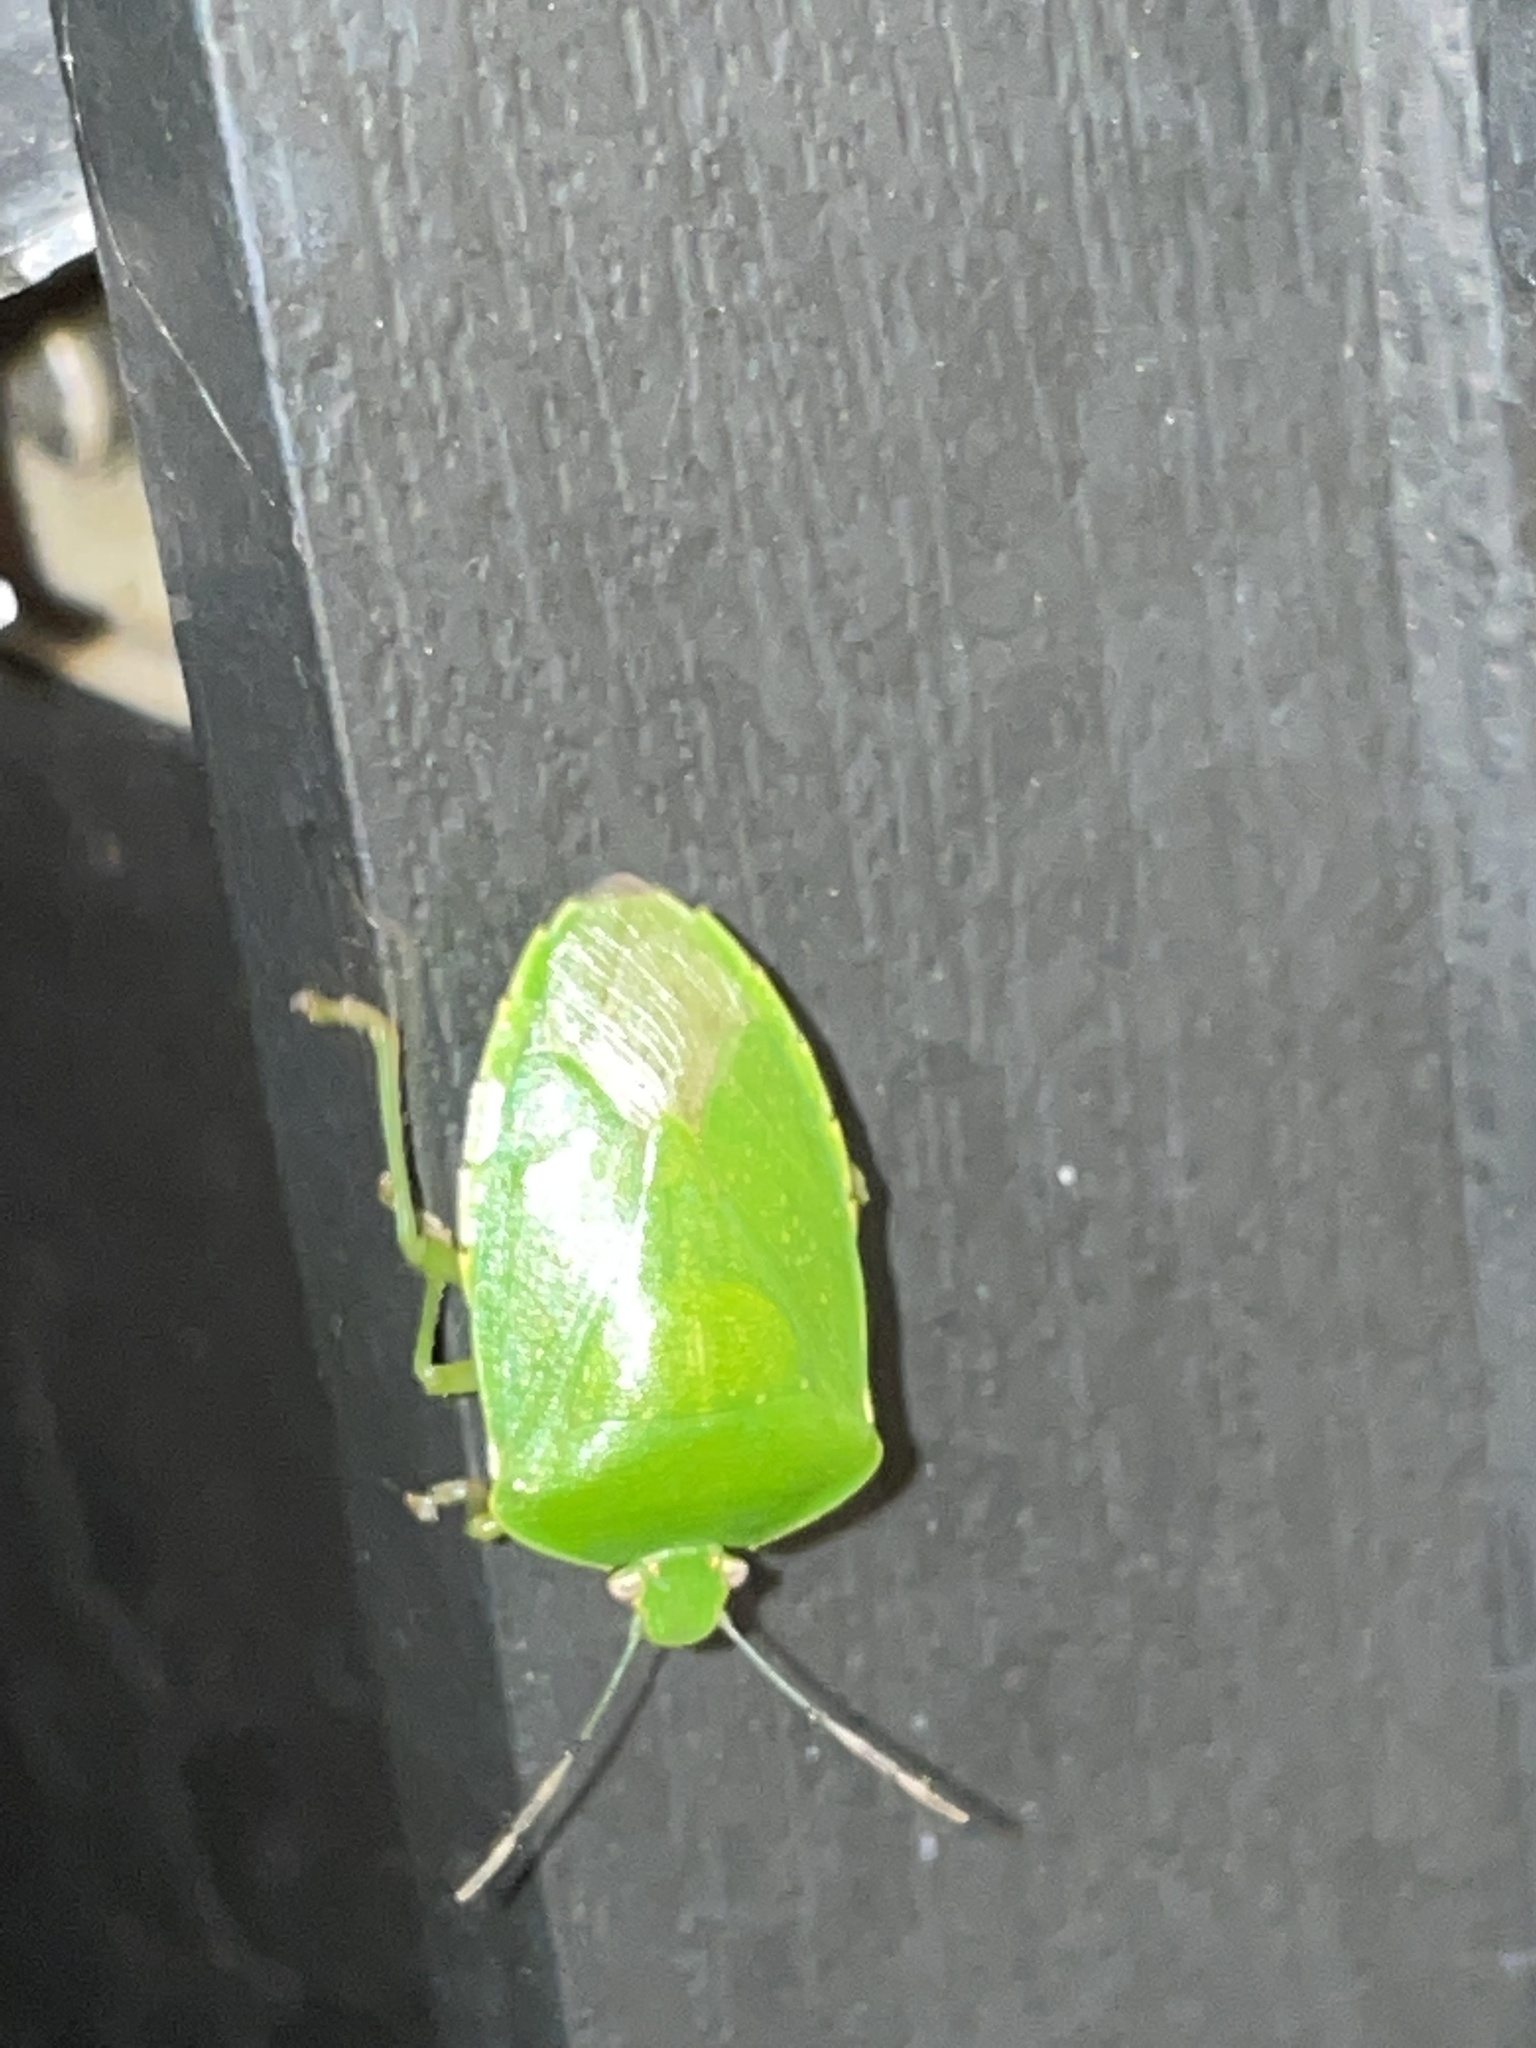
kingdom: Animalia
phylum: Arthropoda
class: Insecta
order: Hemiptera
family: Pentatomidae
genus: Chinavia
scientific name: Chinavia hilaris
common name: Green stink bug
